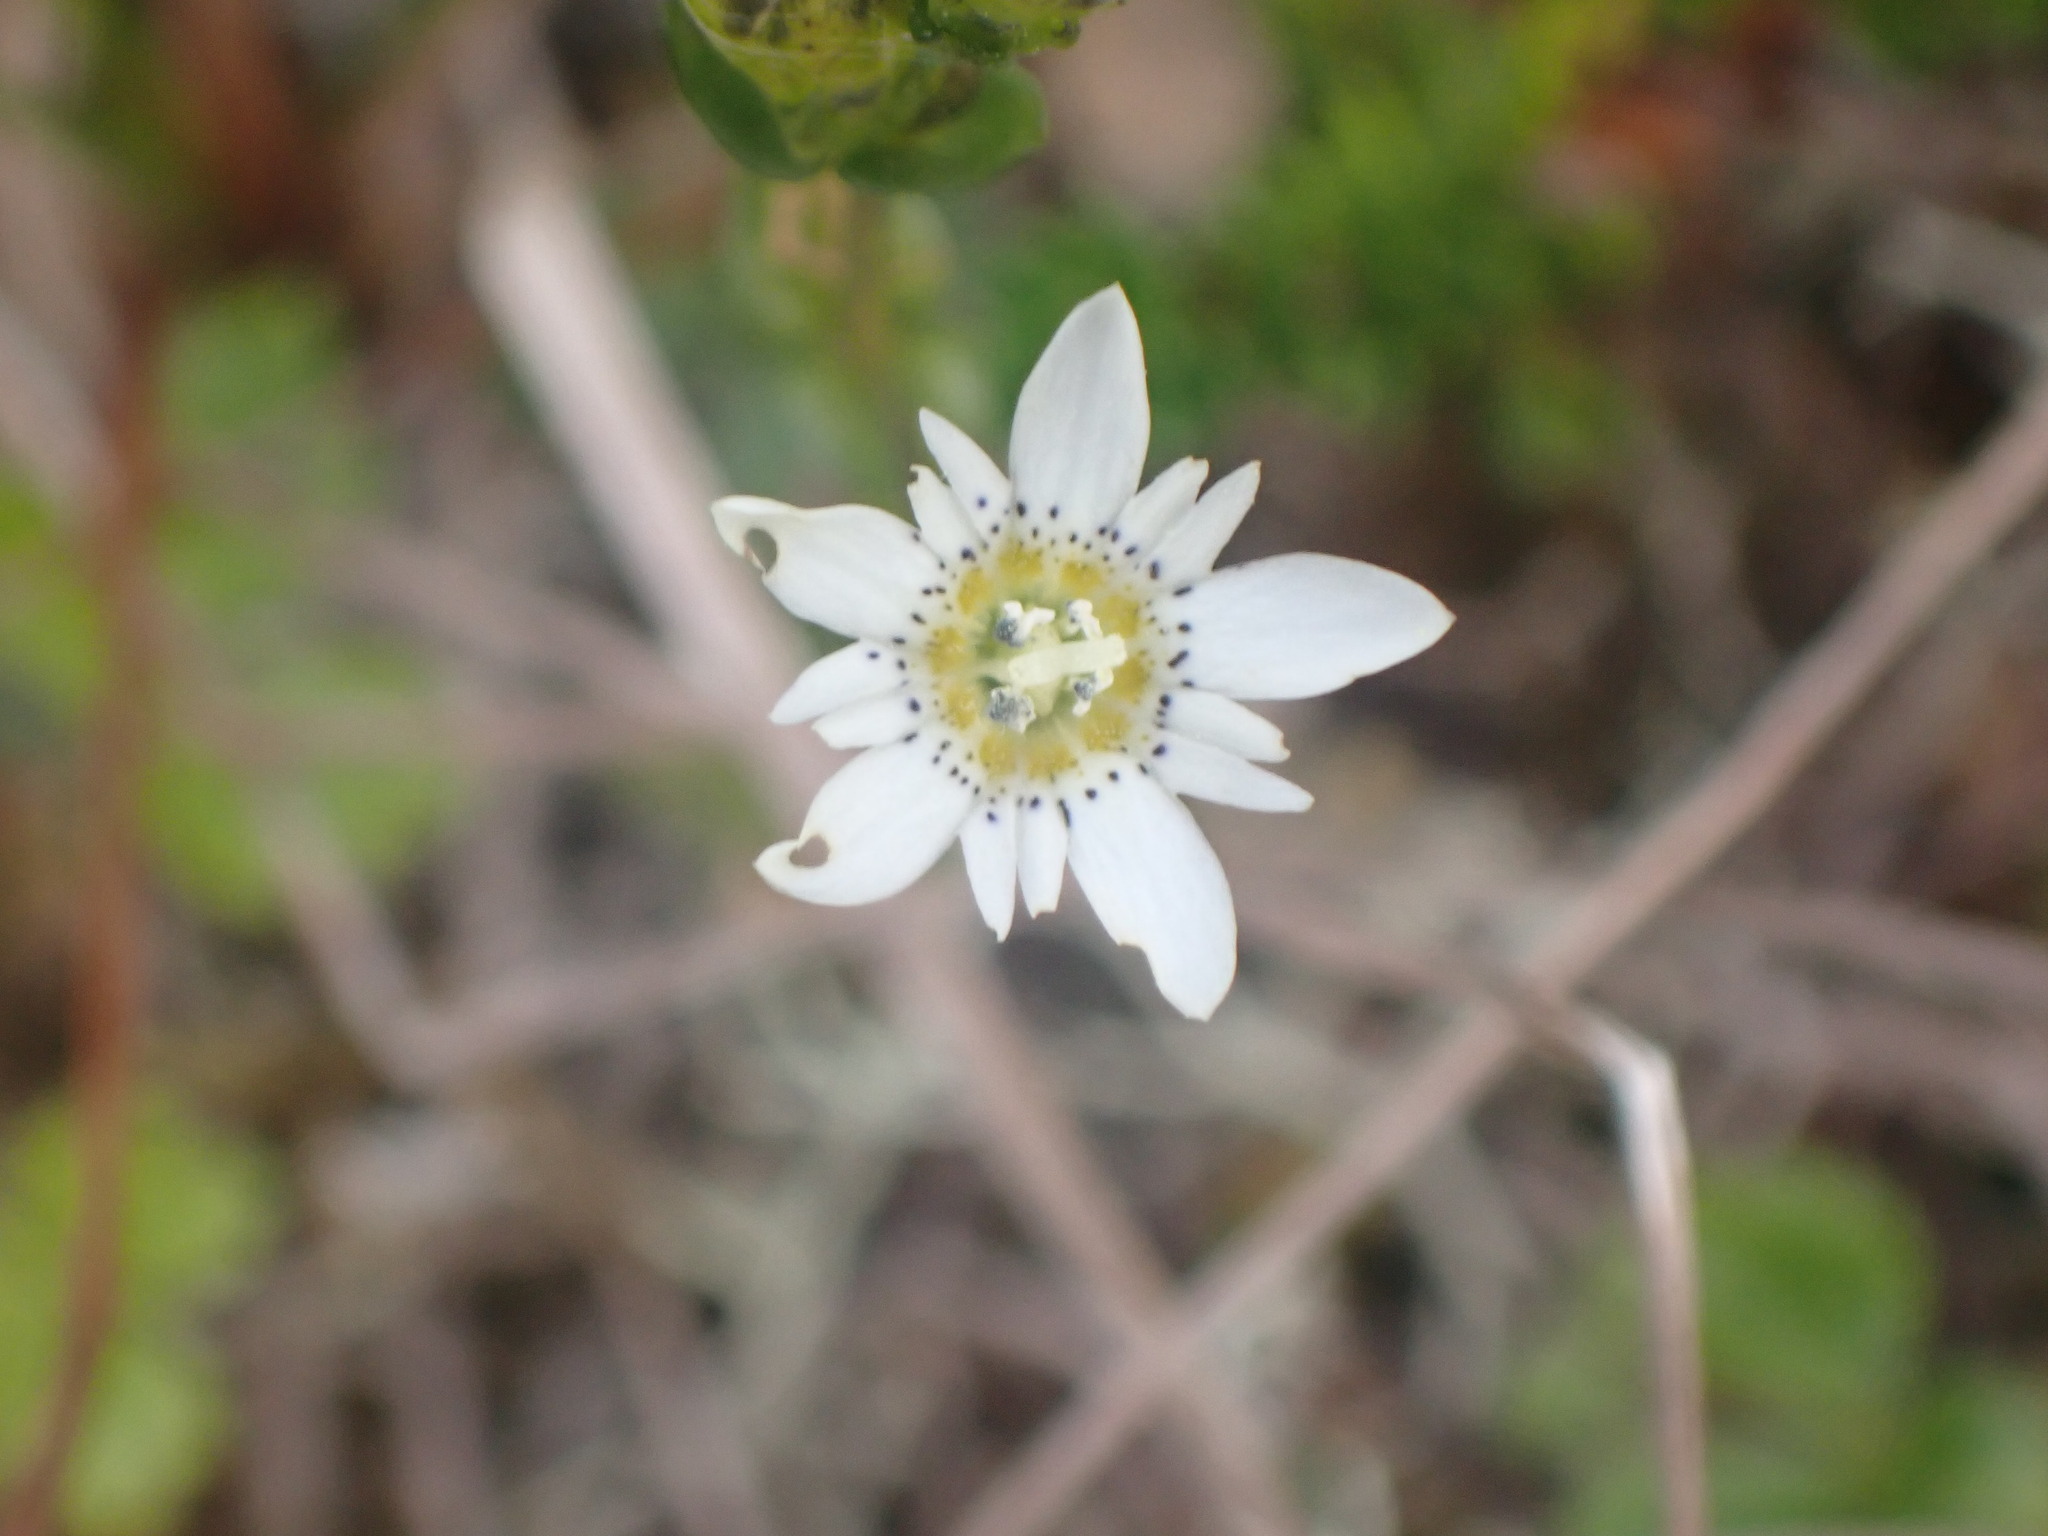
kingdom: Plantae
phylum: Tracheophyta
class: Magnoliopsida
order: Gentianales
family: Gentianaceae
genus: Gentiana
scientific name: Gentiana douglasiana
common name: Swamp gentian
